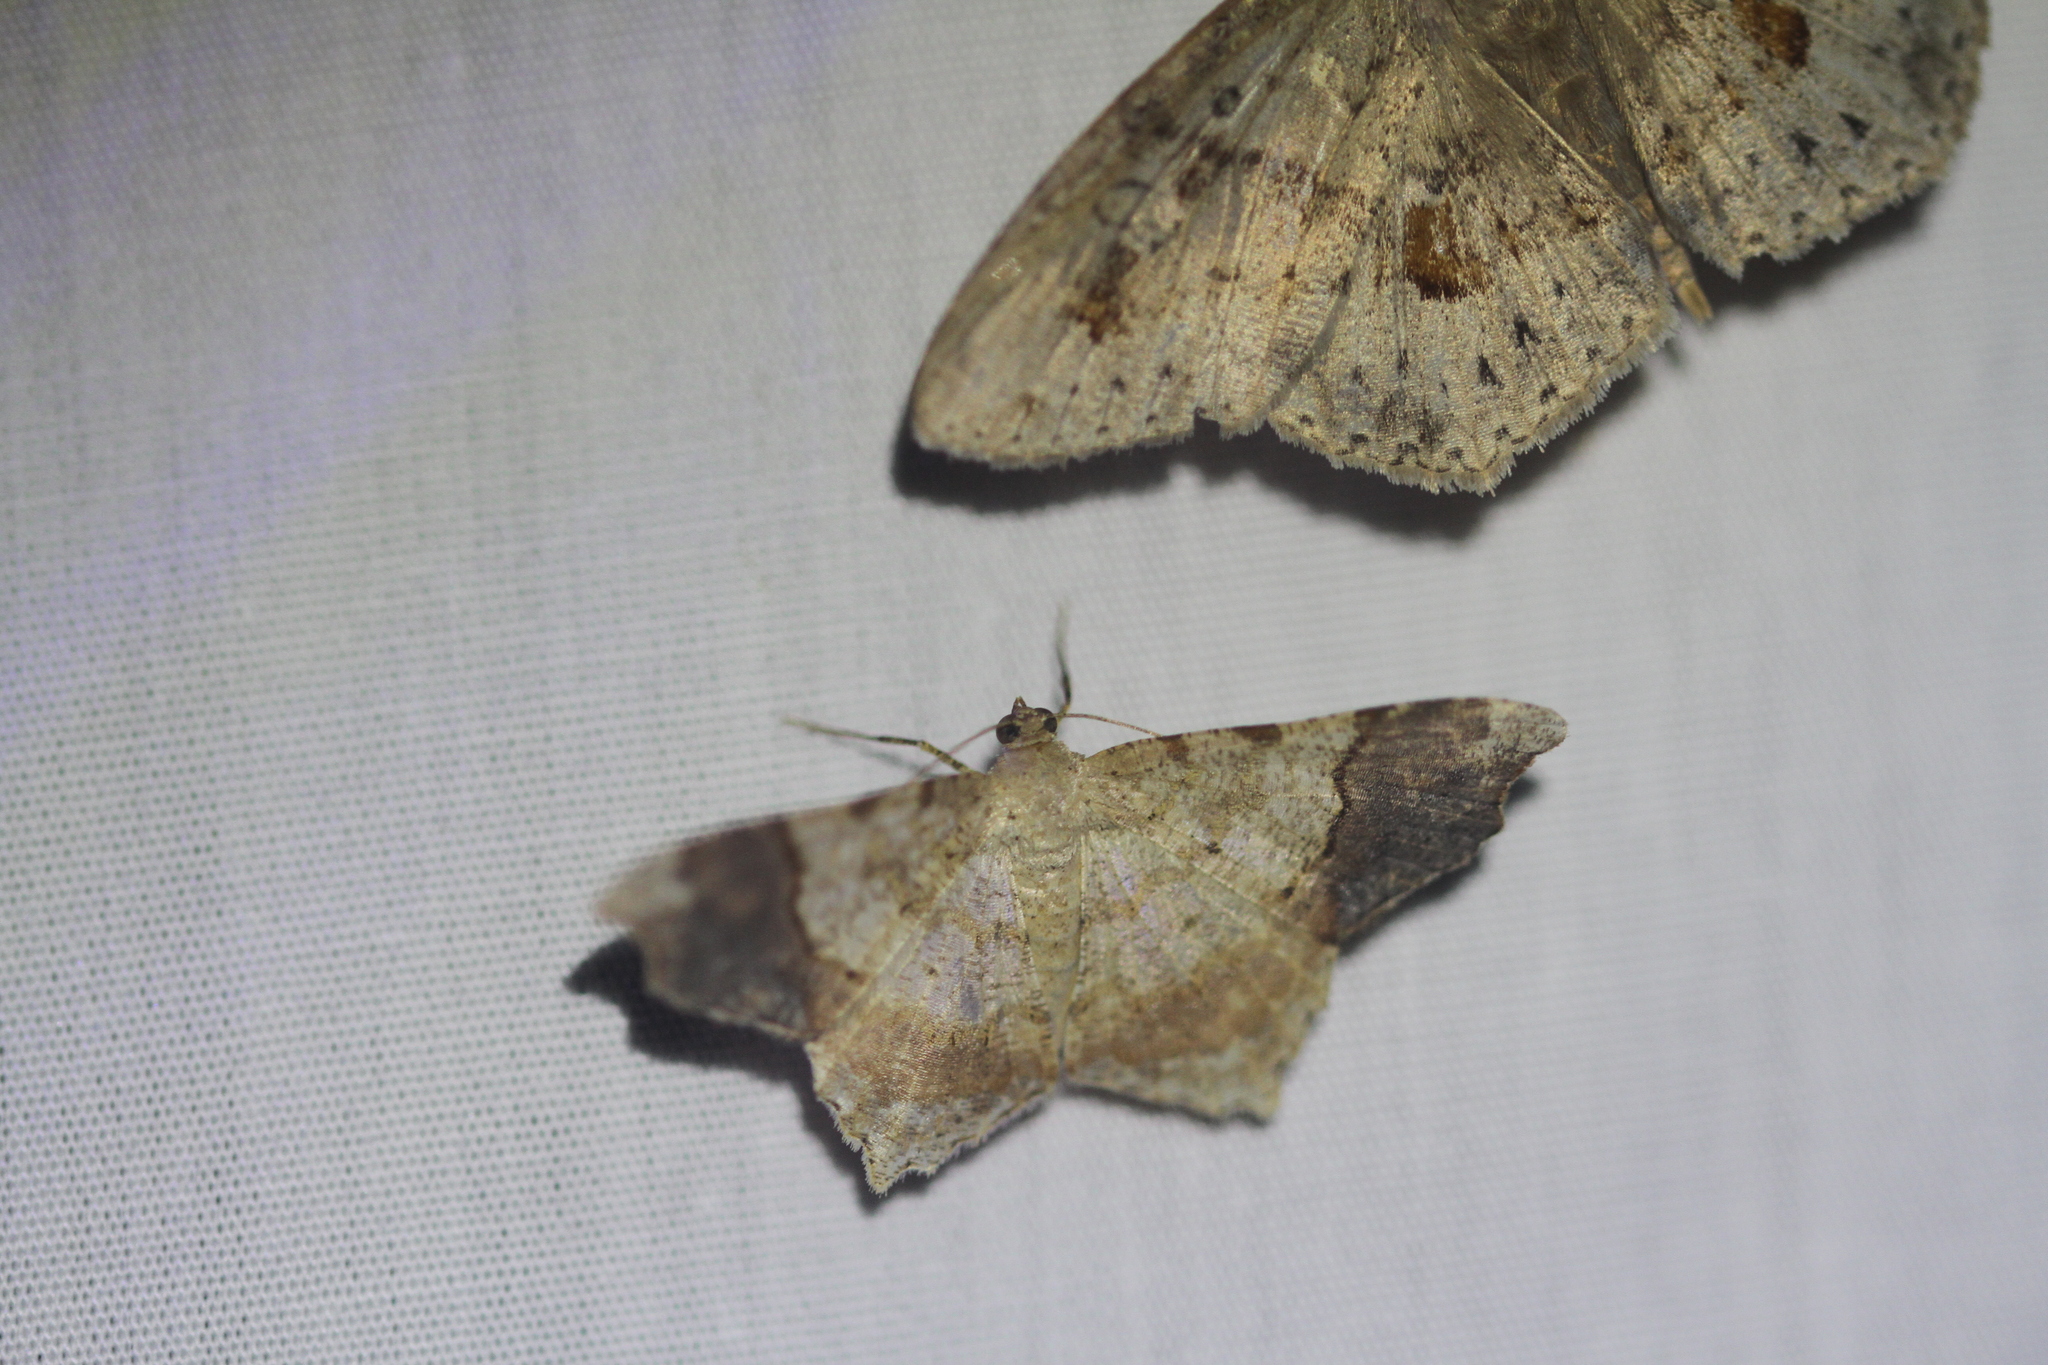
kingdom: Animalia
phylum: Arthropoda
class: Insecta
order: Lepidoptera
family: Geometridae
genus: Macaria
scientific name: Macaria
